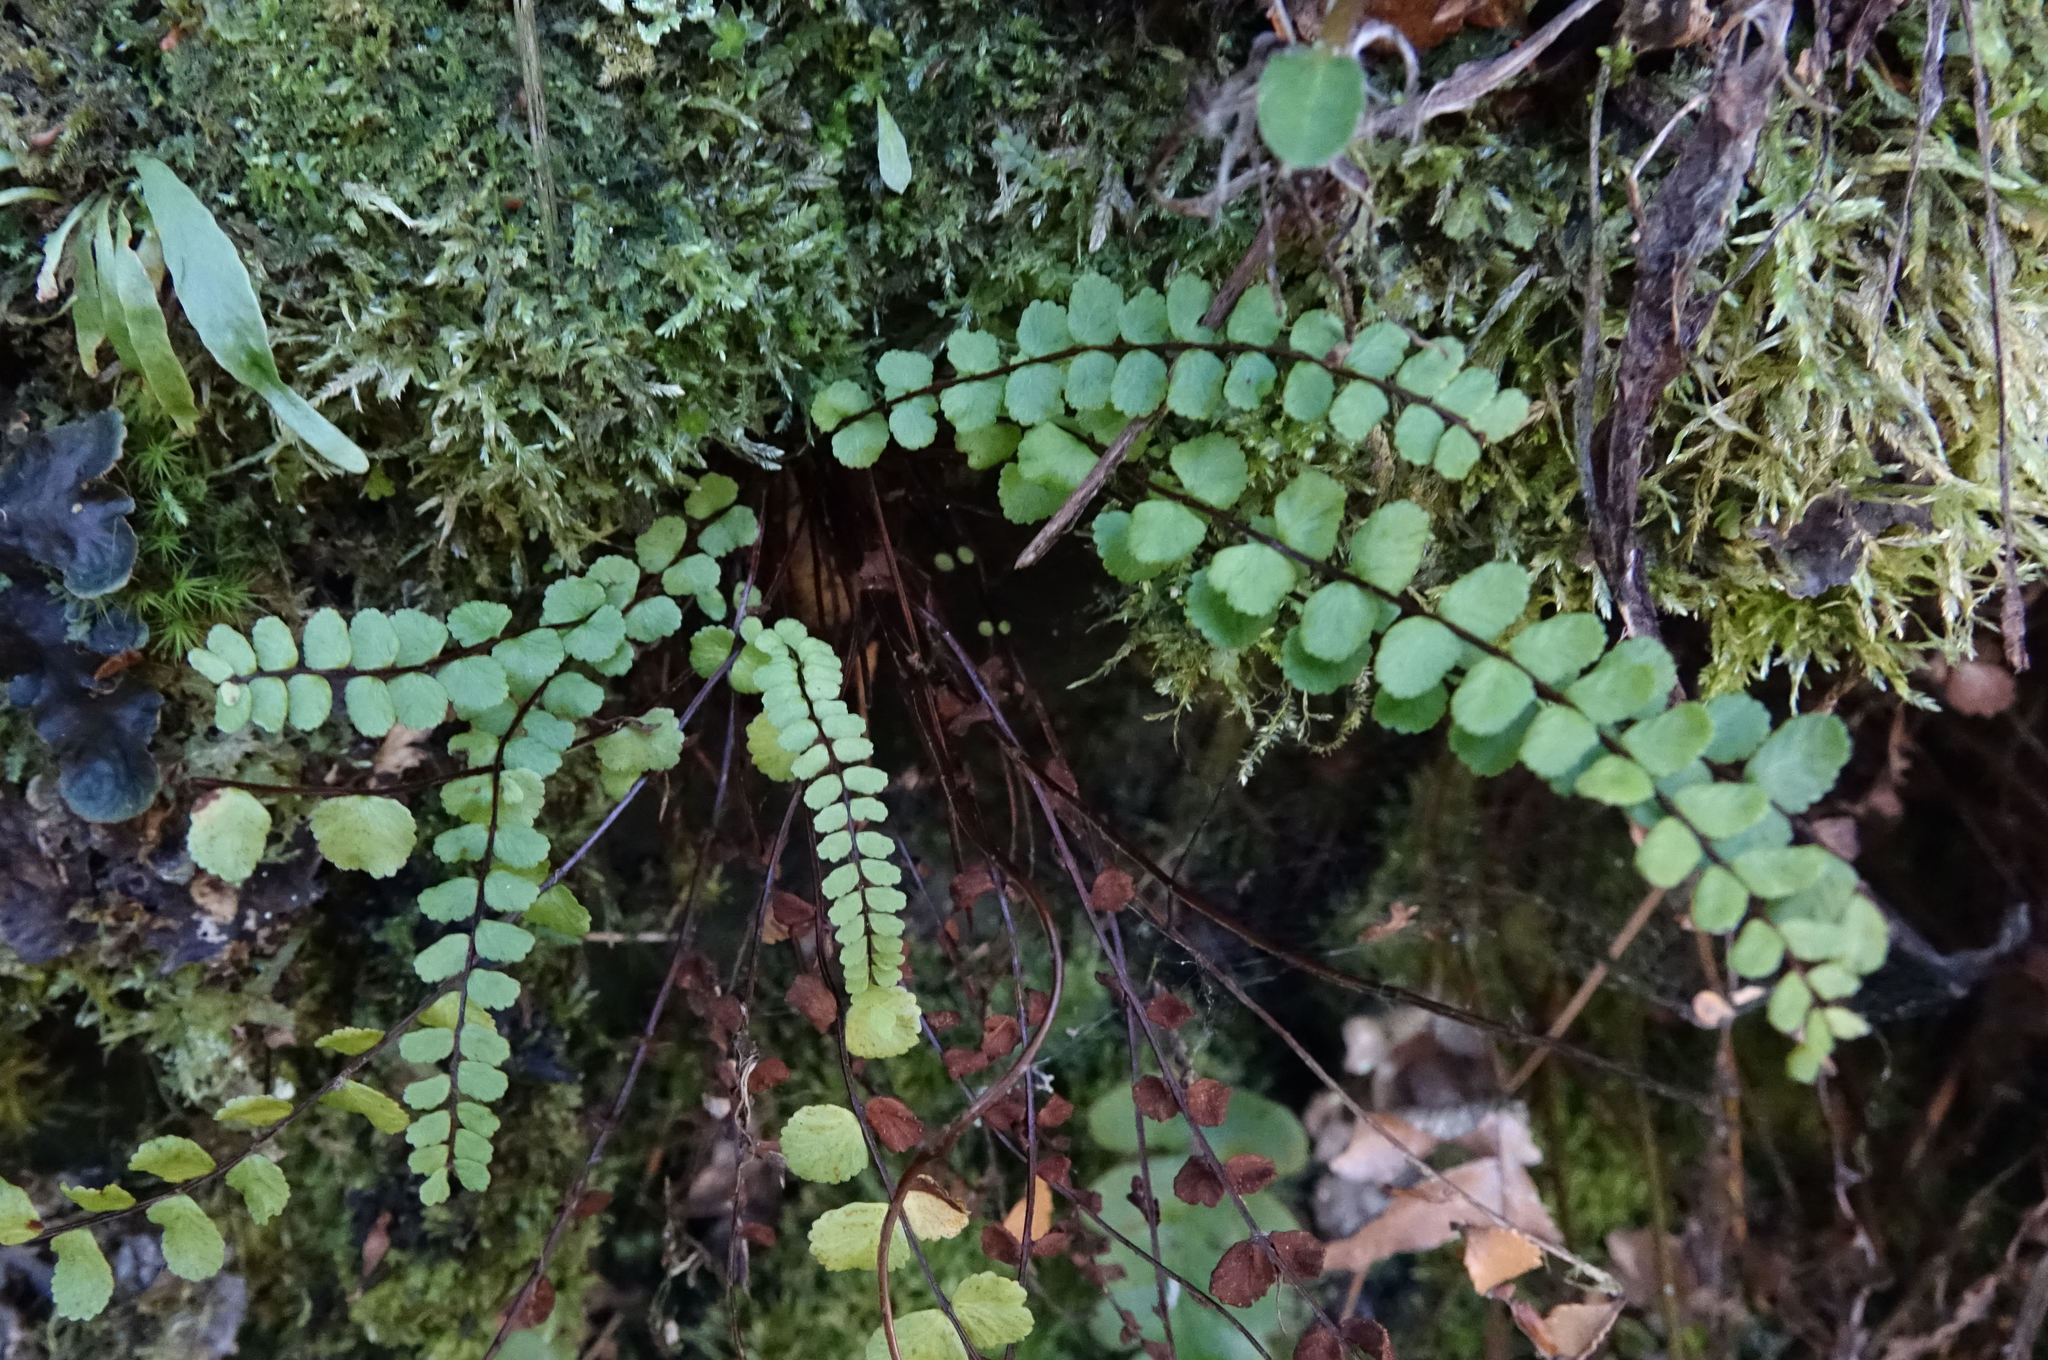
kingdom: Plantae
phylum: Tracheophyta
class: Polypodiopsida
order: Polypodiales
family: Aspleniaceae
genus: Asplenium
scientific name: Asplenium trichomanes
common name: Maidenhair spleenwort
